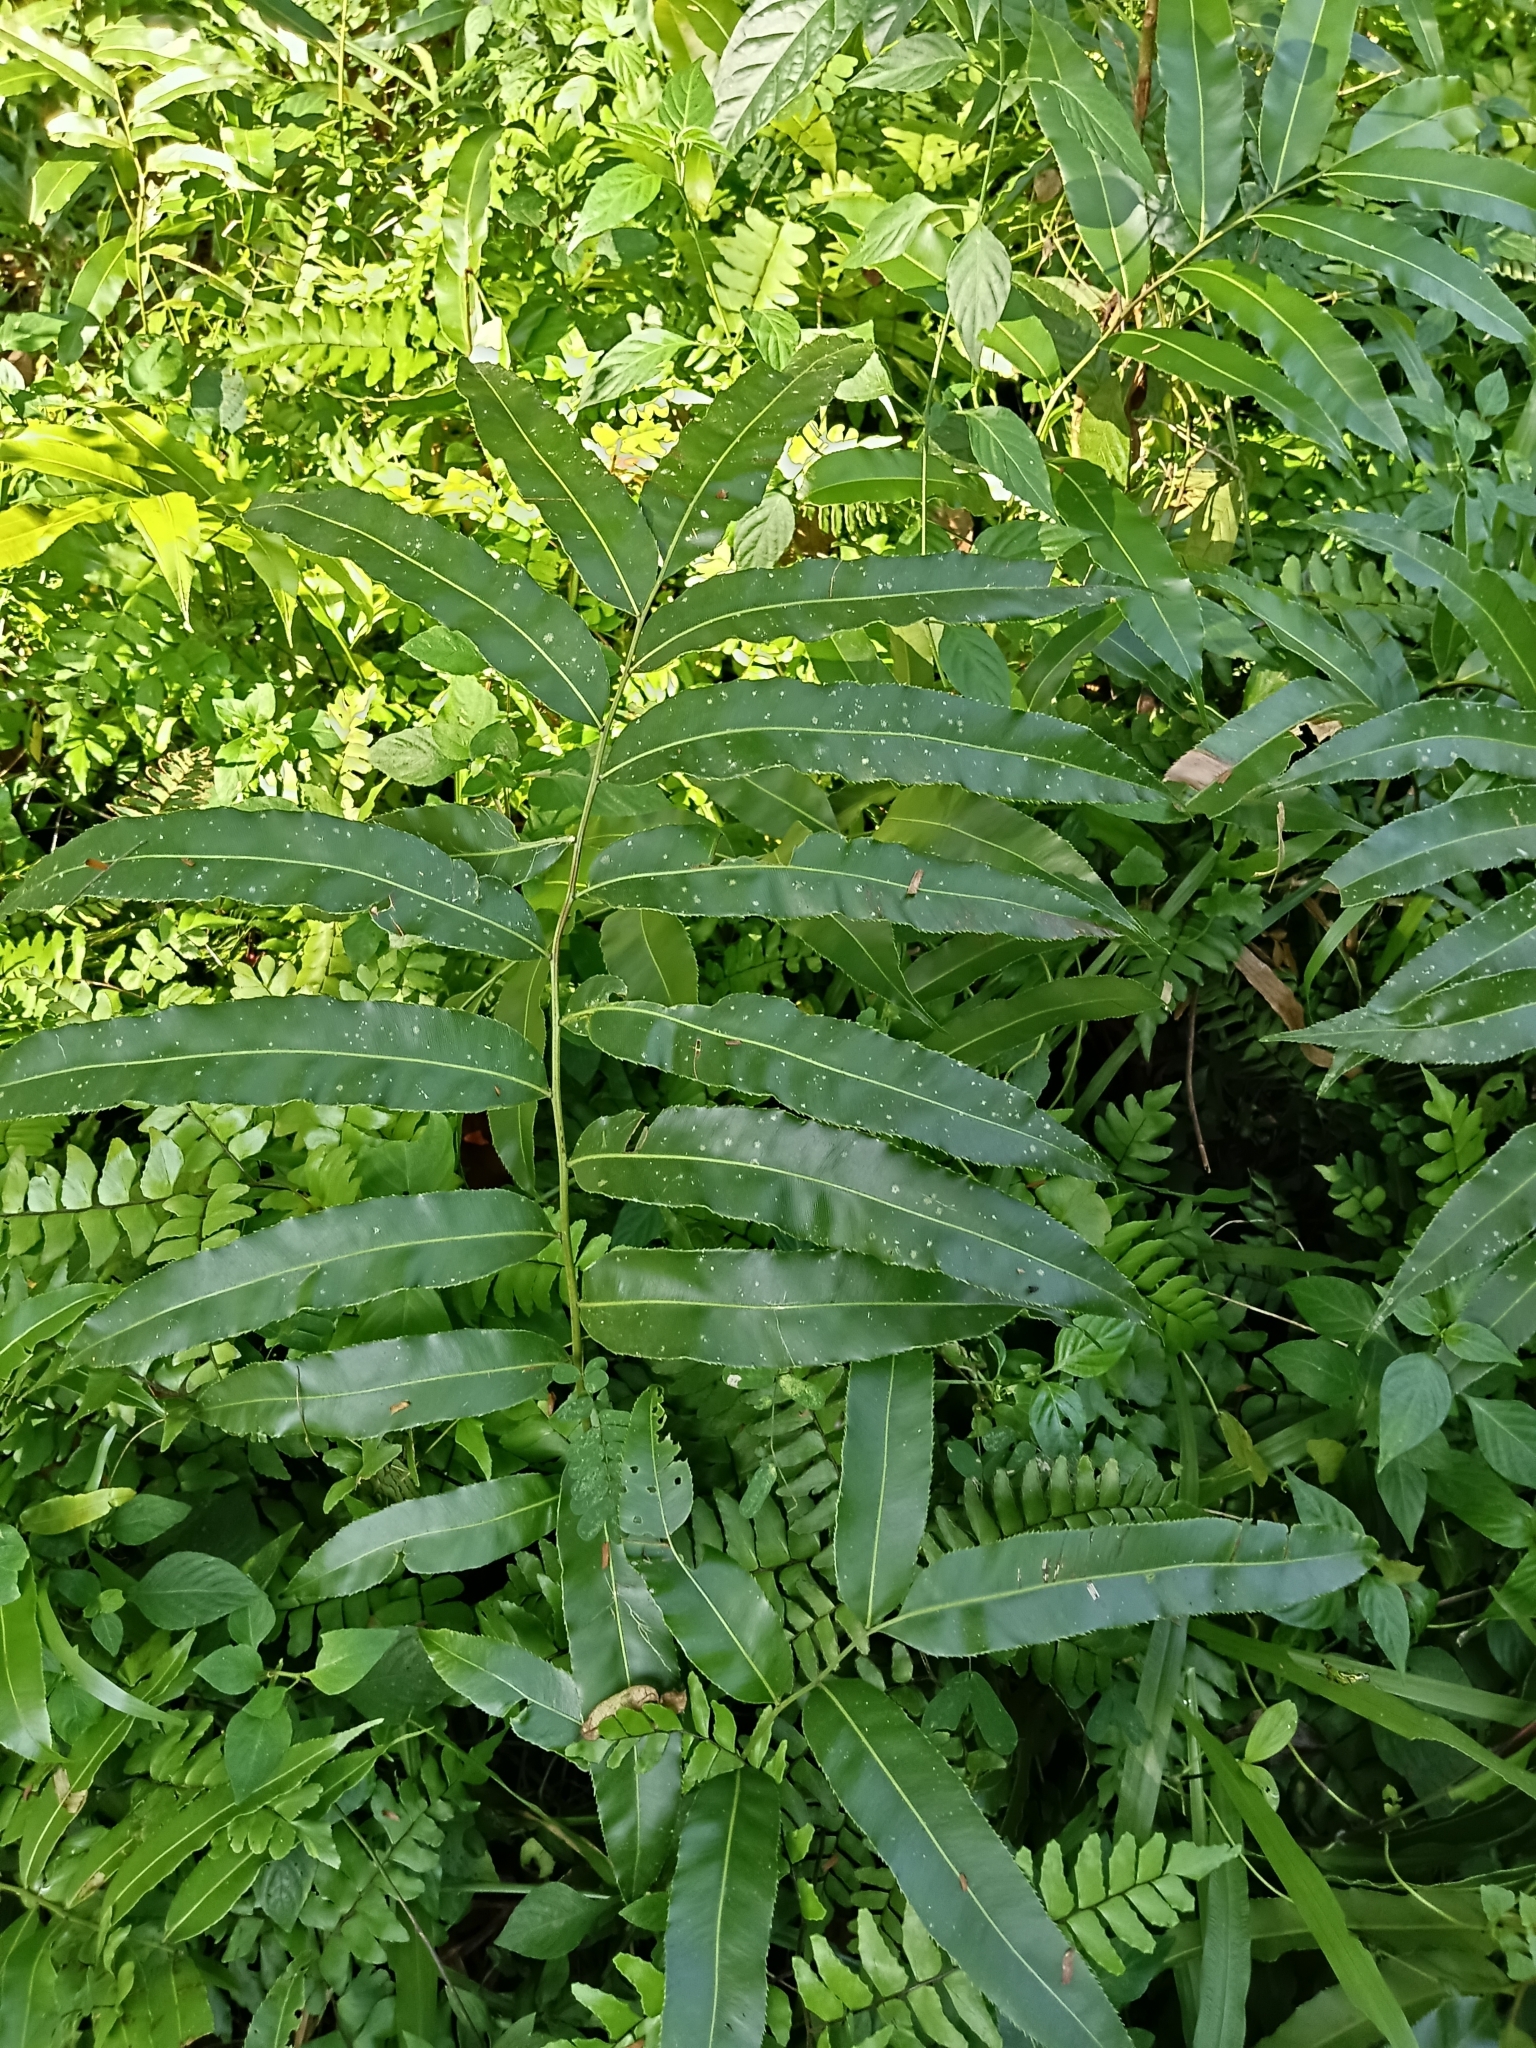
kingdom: Plantae
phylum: Tracheophyta
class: Polypodiopsida
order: Polypodiales
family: Blechnaceae
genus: Stenochlaena
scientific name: Stenochlaena palustris
